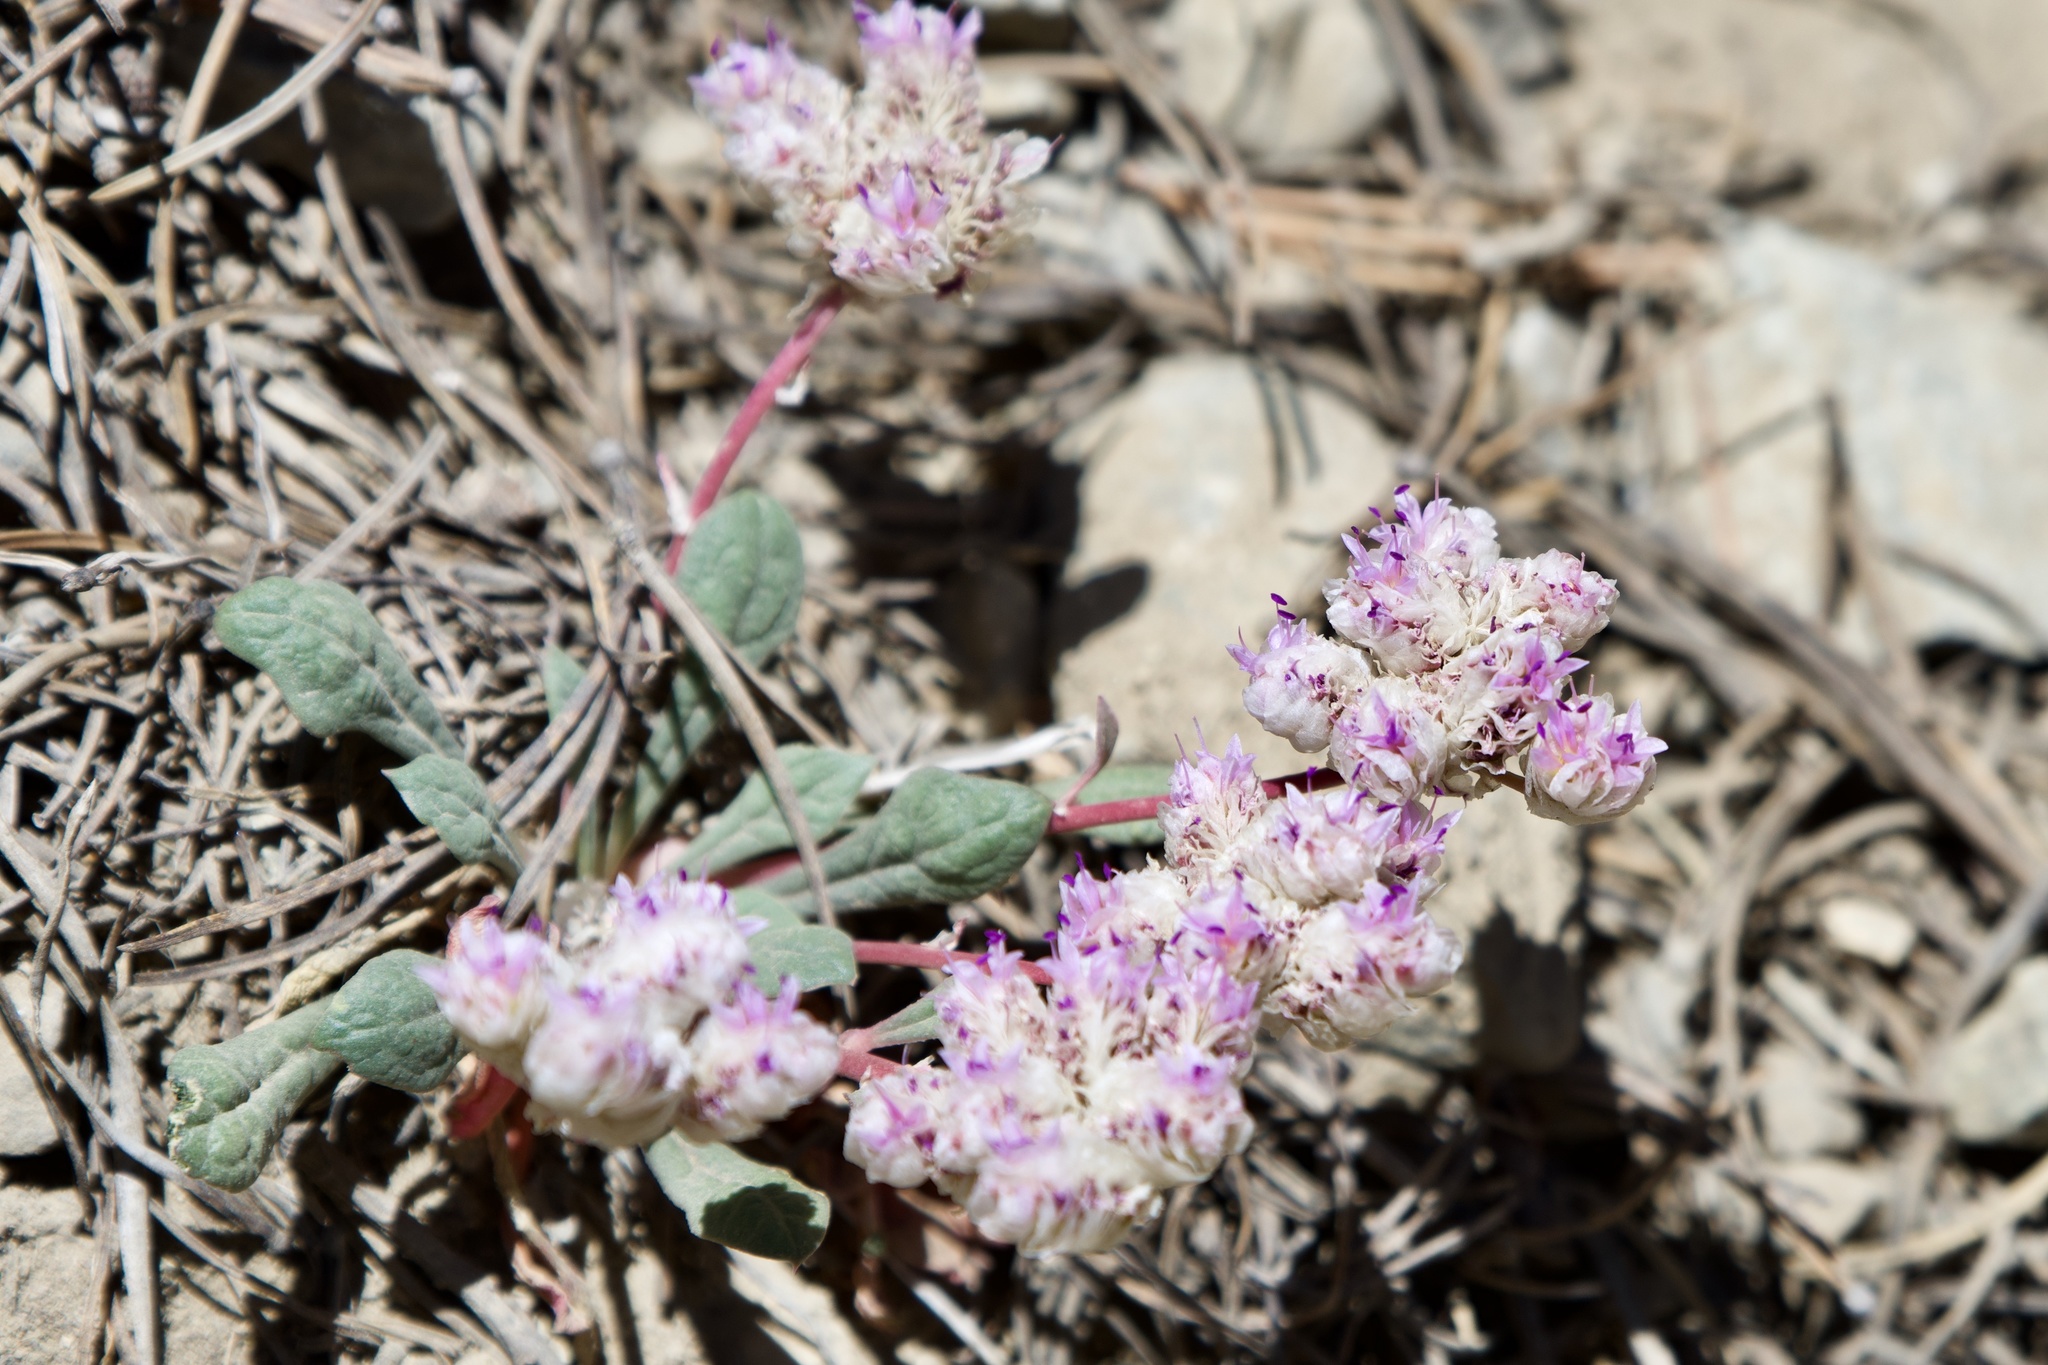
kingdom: Plantae
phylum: Tracheophyta
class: Magnoliopsida
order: Caryophyllales
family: Montiaceae
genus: Calyptridium
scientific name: Calyptridium monospermum
